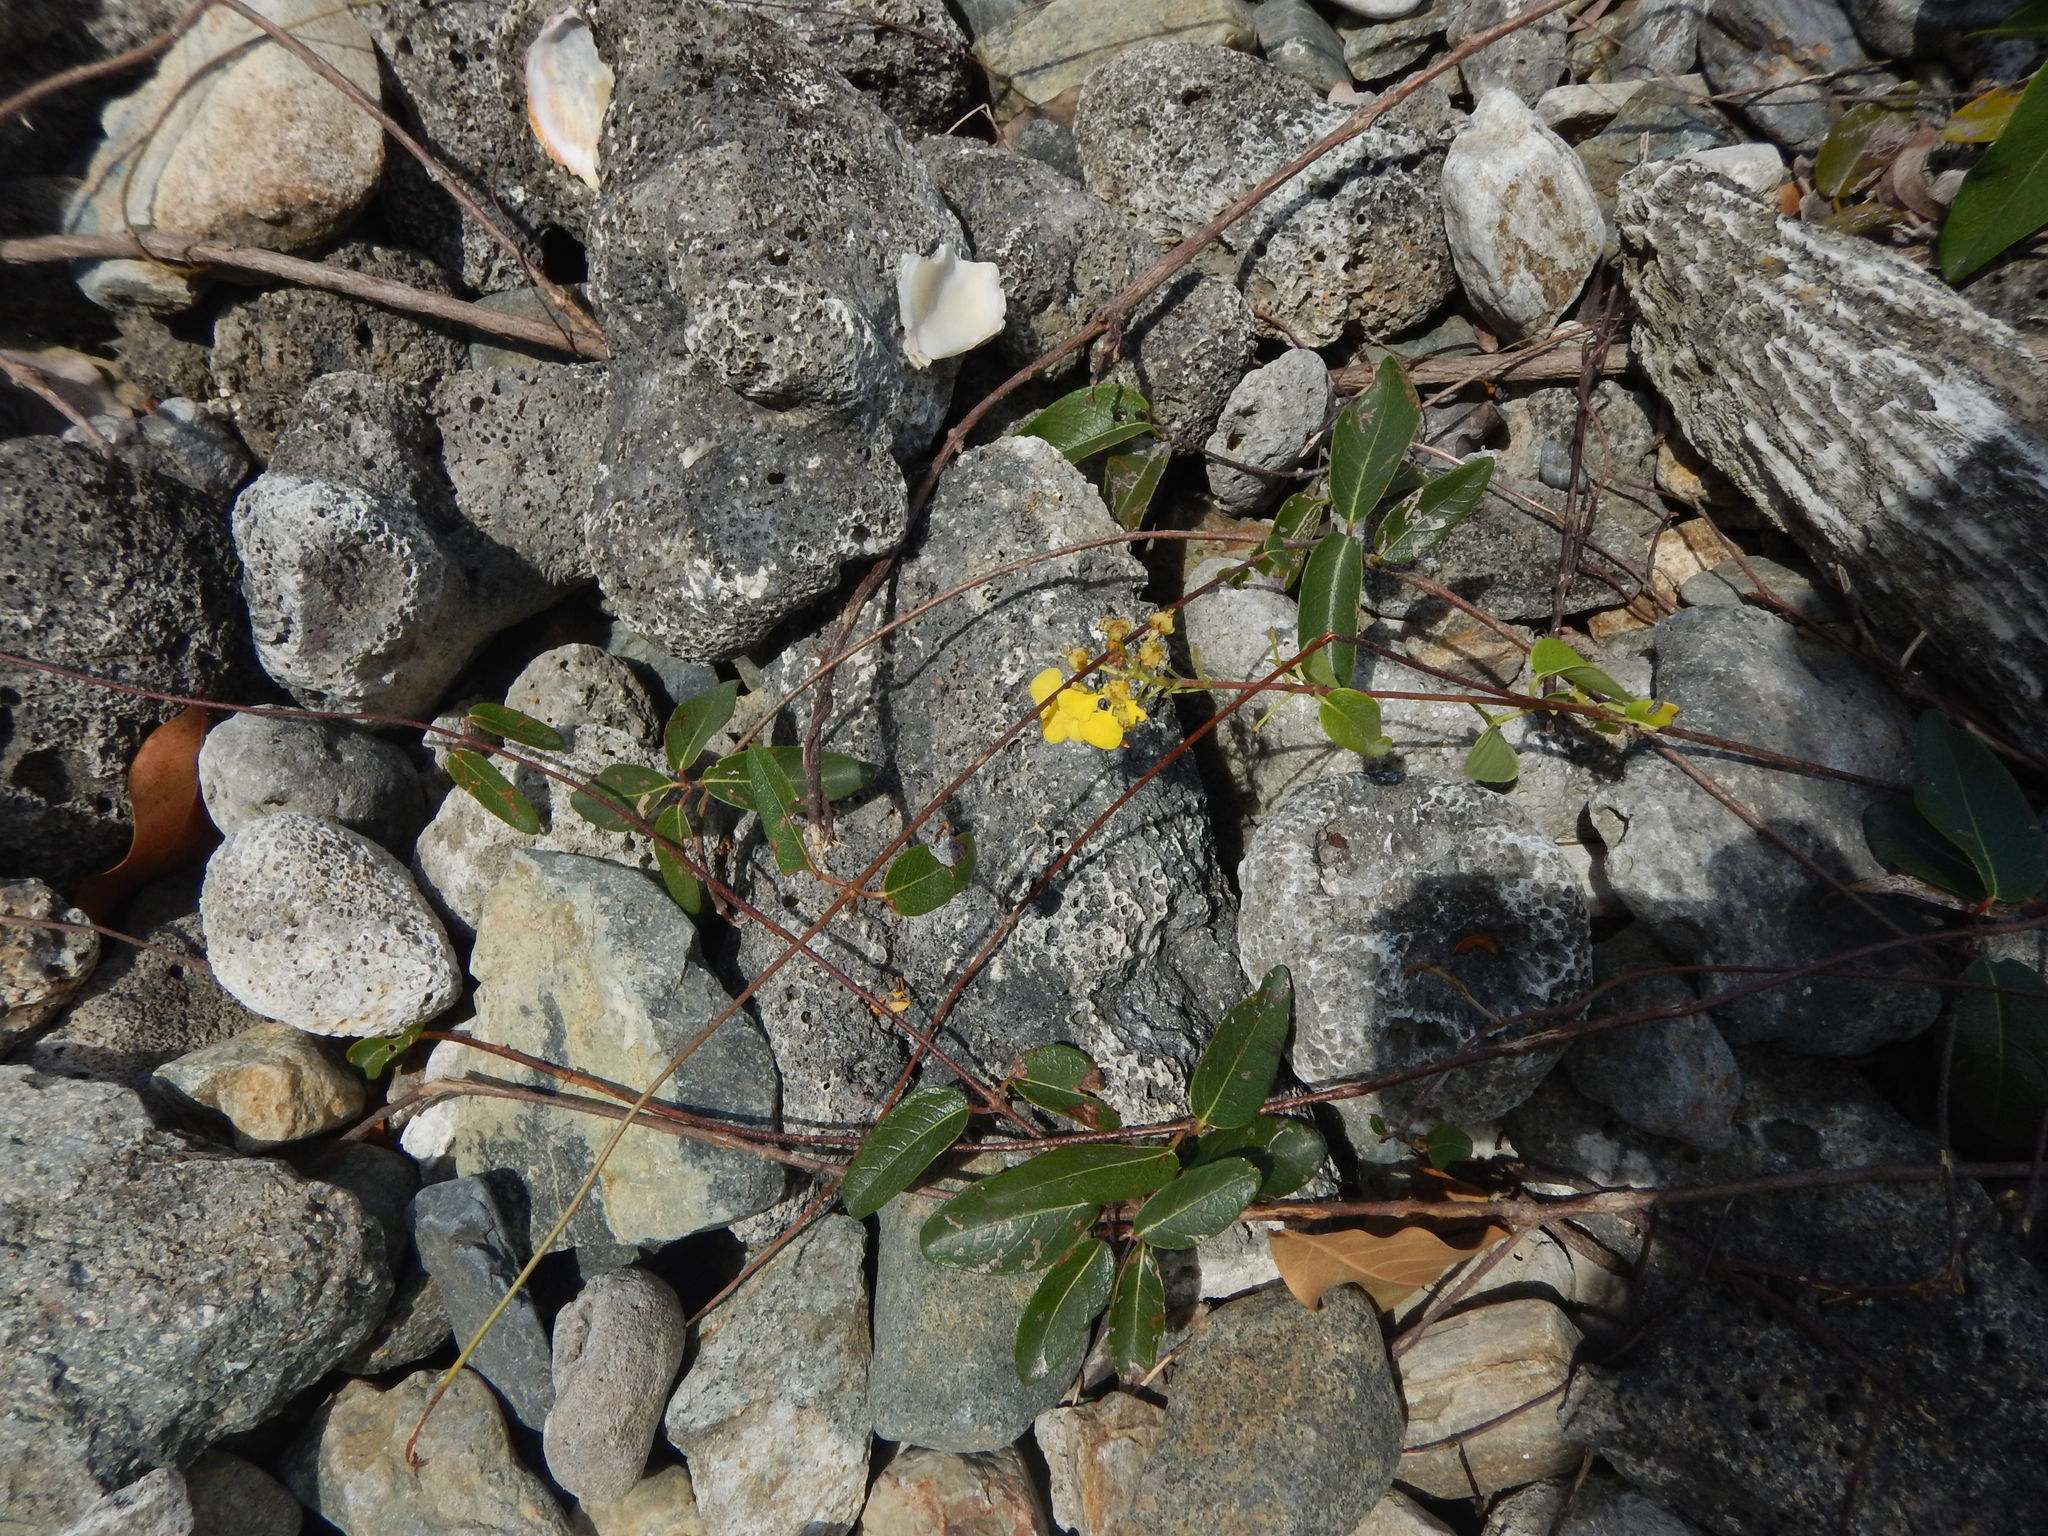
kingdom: Plantae
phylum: Tracheophyta
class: Magnoliopsida
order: Malpighiales
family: Malpighiaceae
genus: Stigmaphyllon
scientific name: Stigmaphyllon emarginatum
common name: Monarch amazonvine
